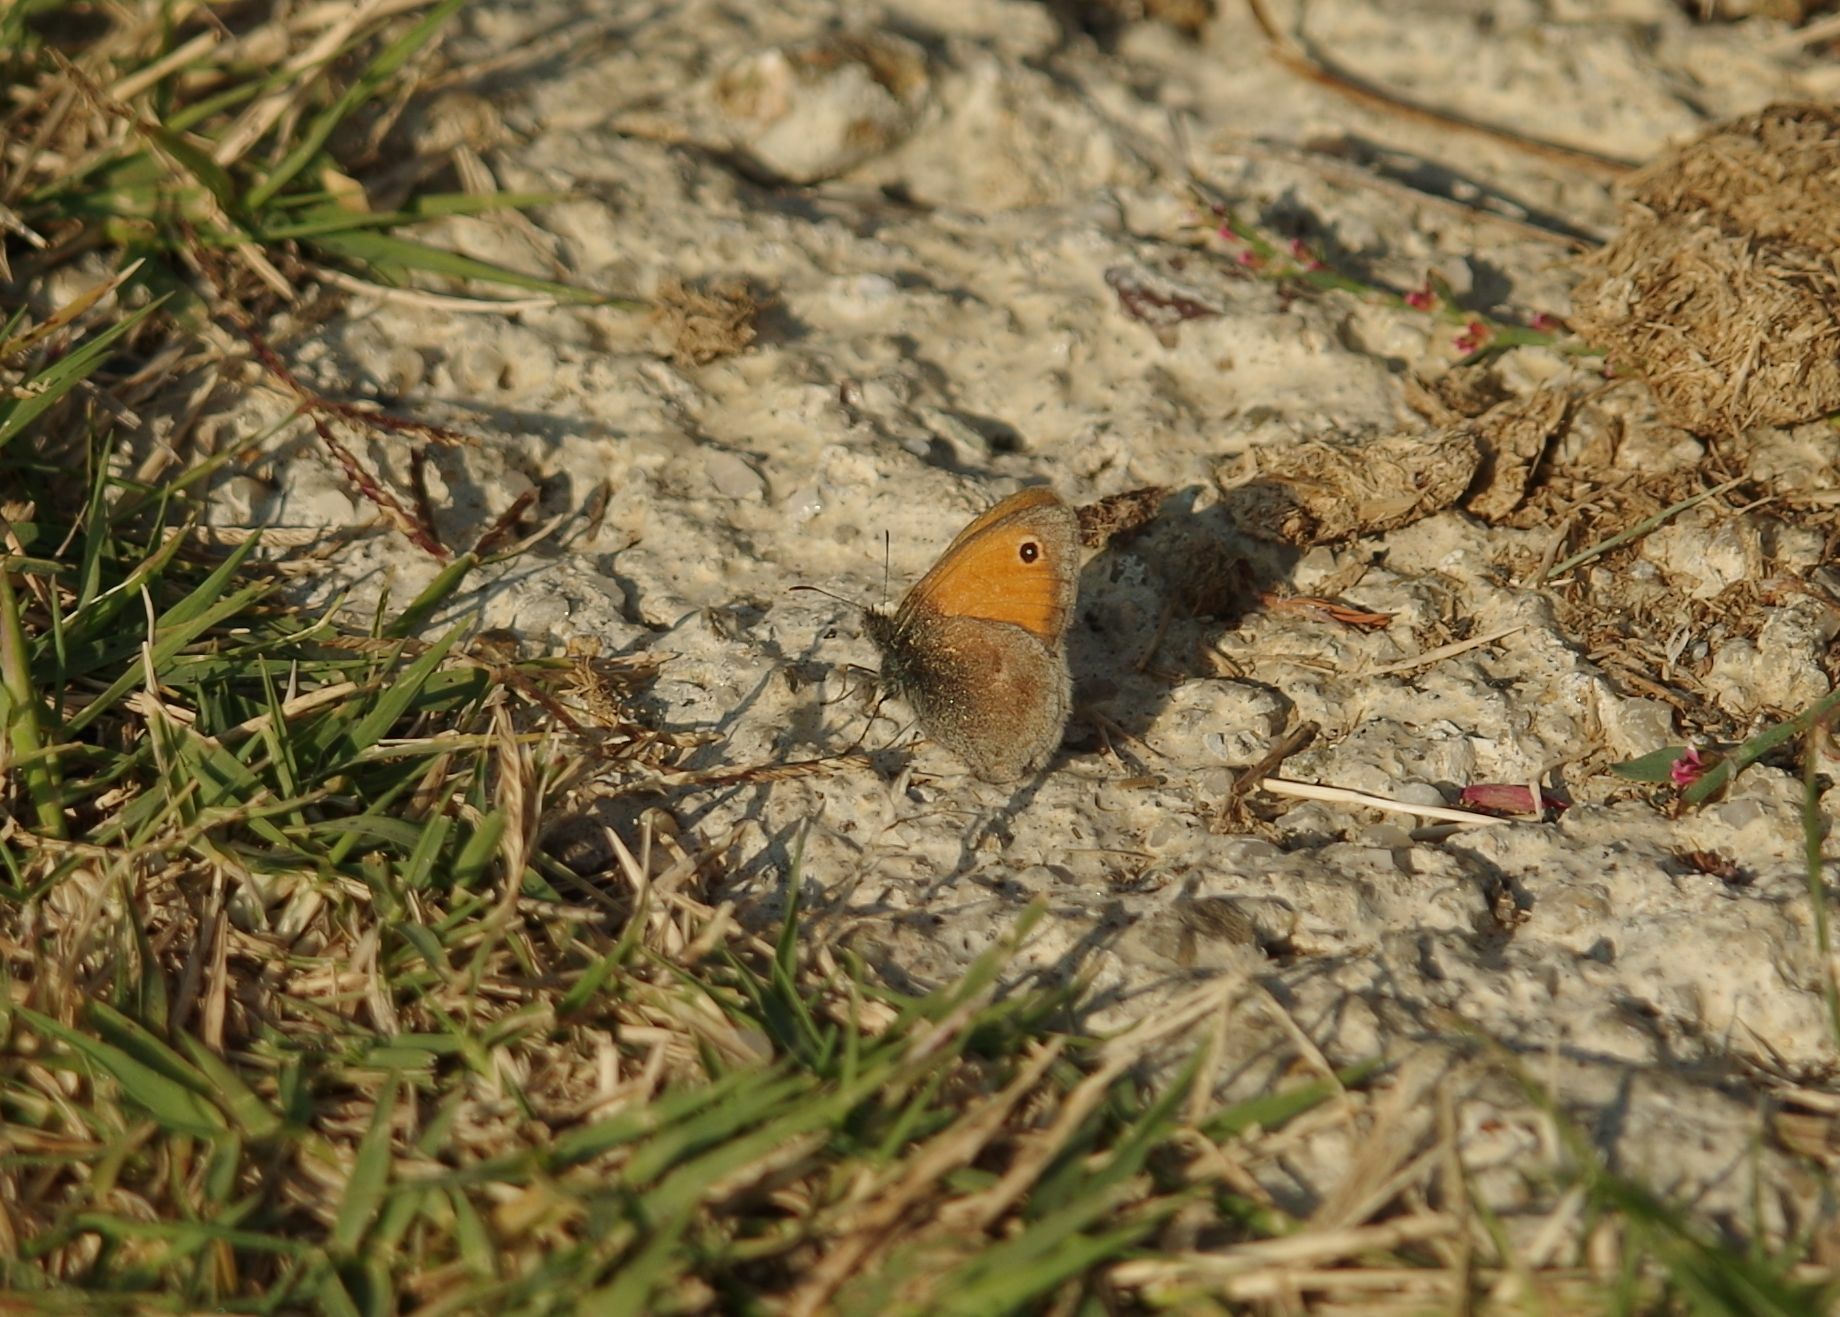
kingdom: Animalia
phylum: Arthropoda
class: Insecta
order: Lepidoptera
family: Nymphalidae
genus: Coenonympha
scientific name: Coenonympha pamphilus
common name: Small heath
